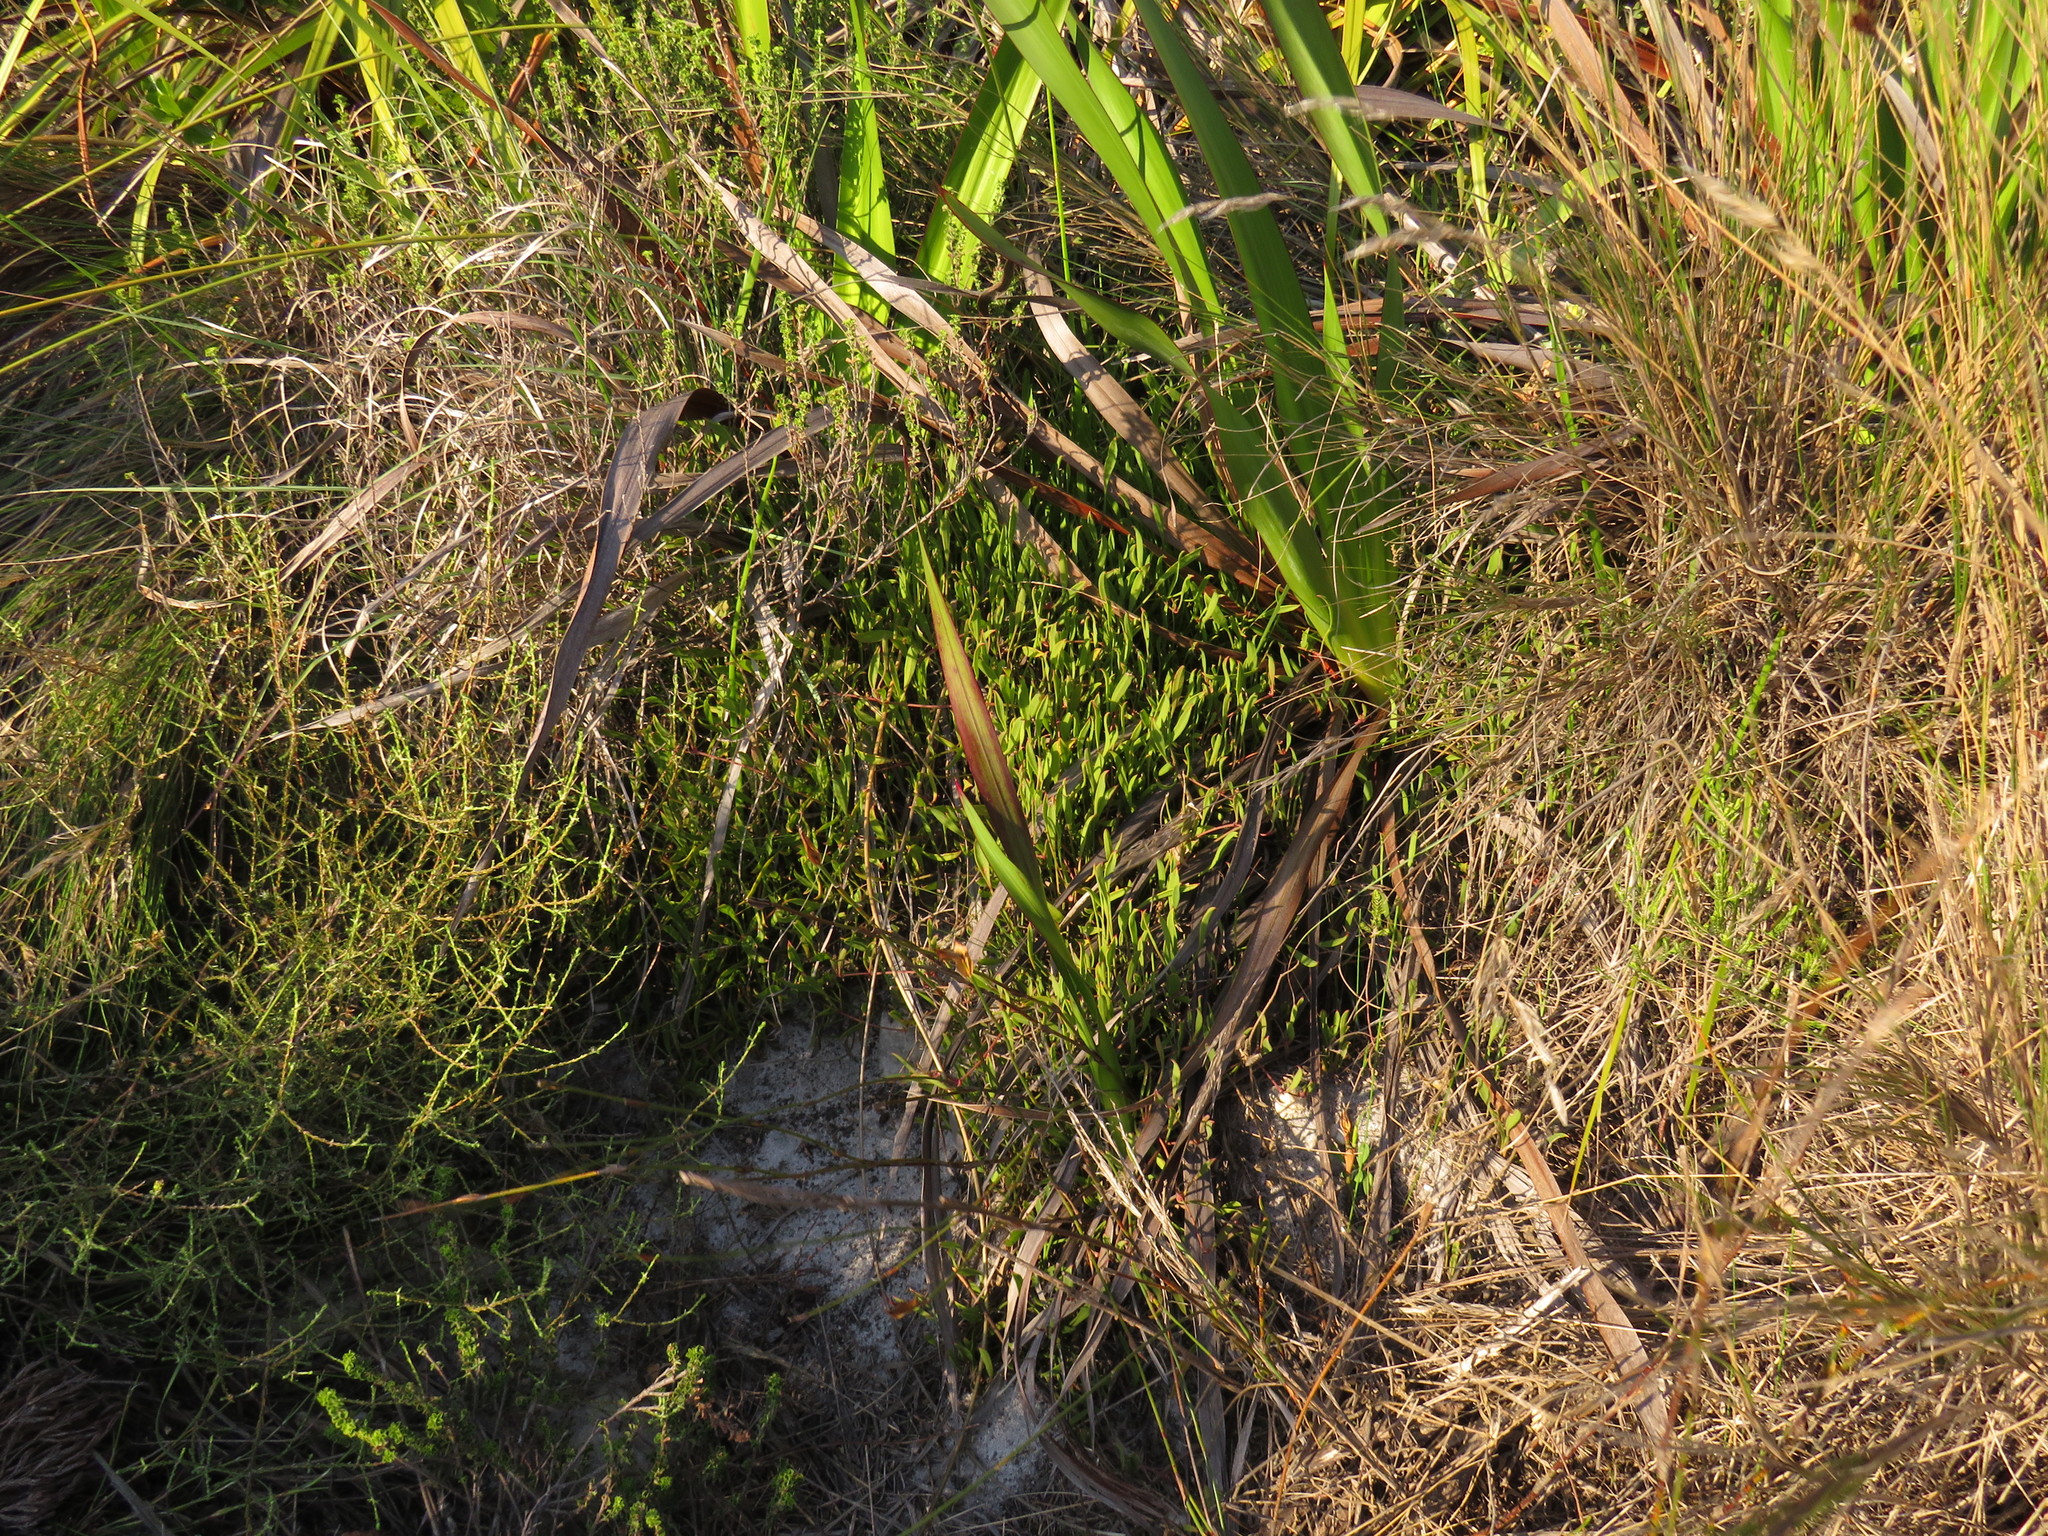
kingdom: Plantae
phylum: Tracheophyta
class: Magnoliopsida
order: Apiales
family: Apiaceae
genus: Centella
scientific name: Centella glabrata
